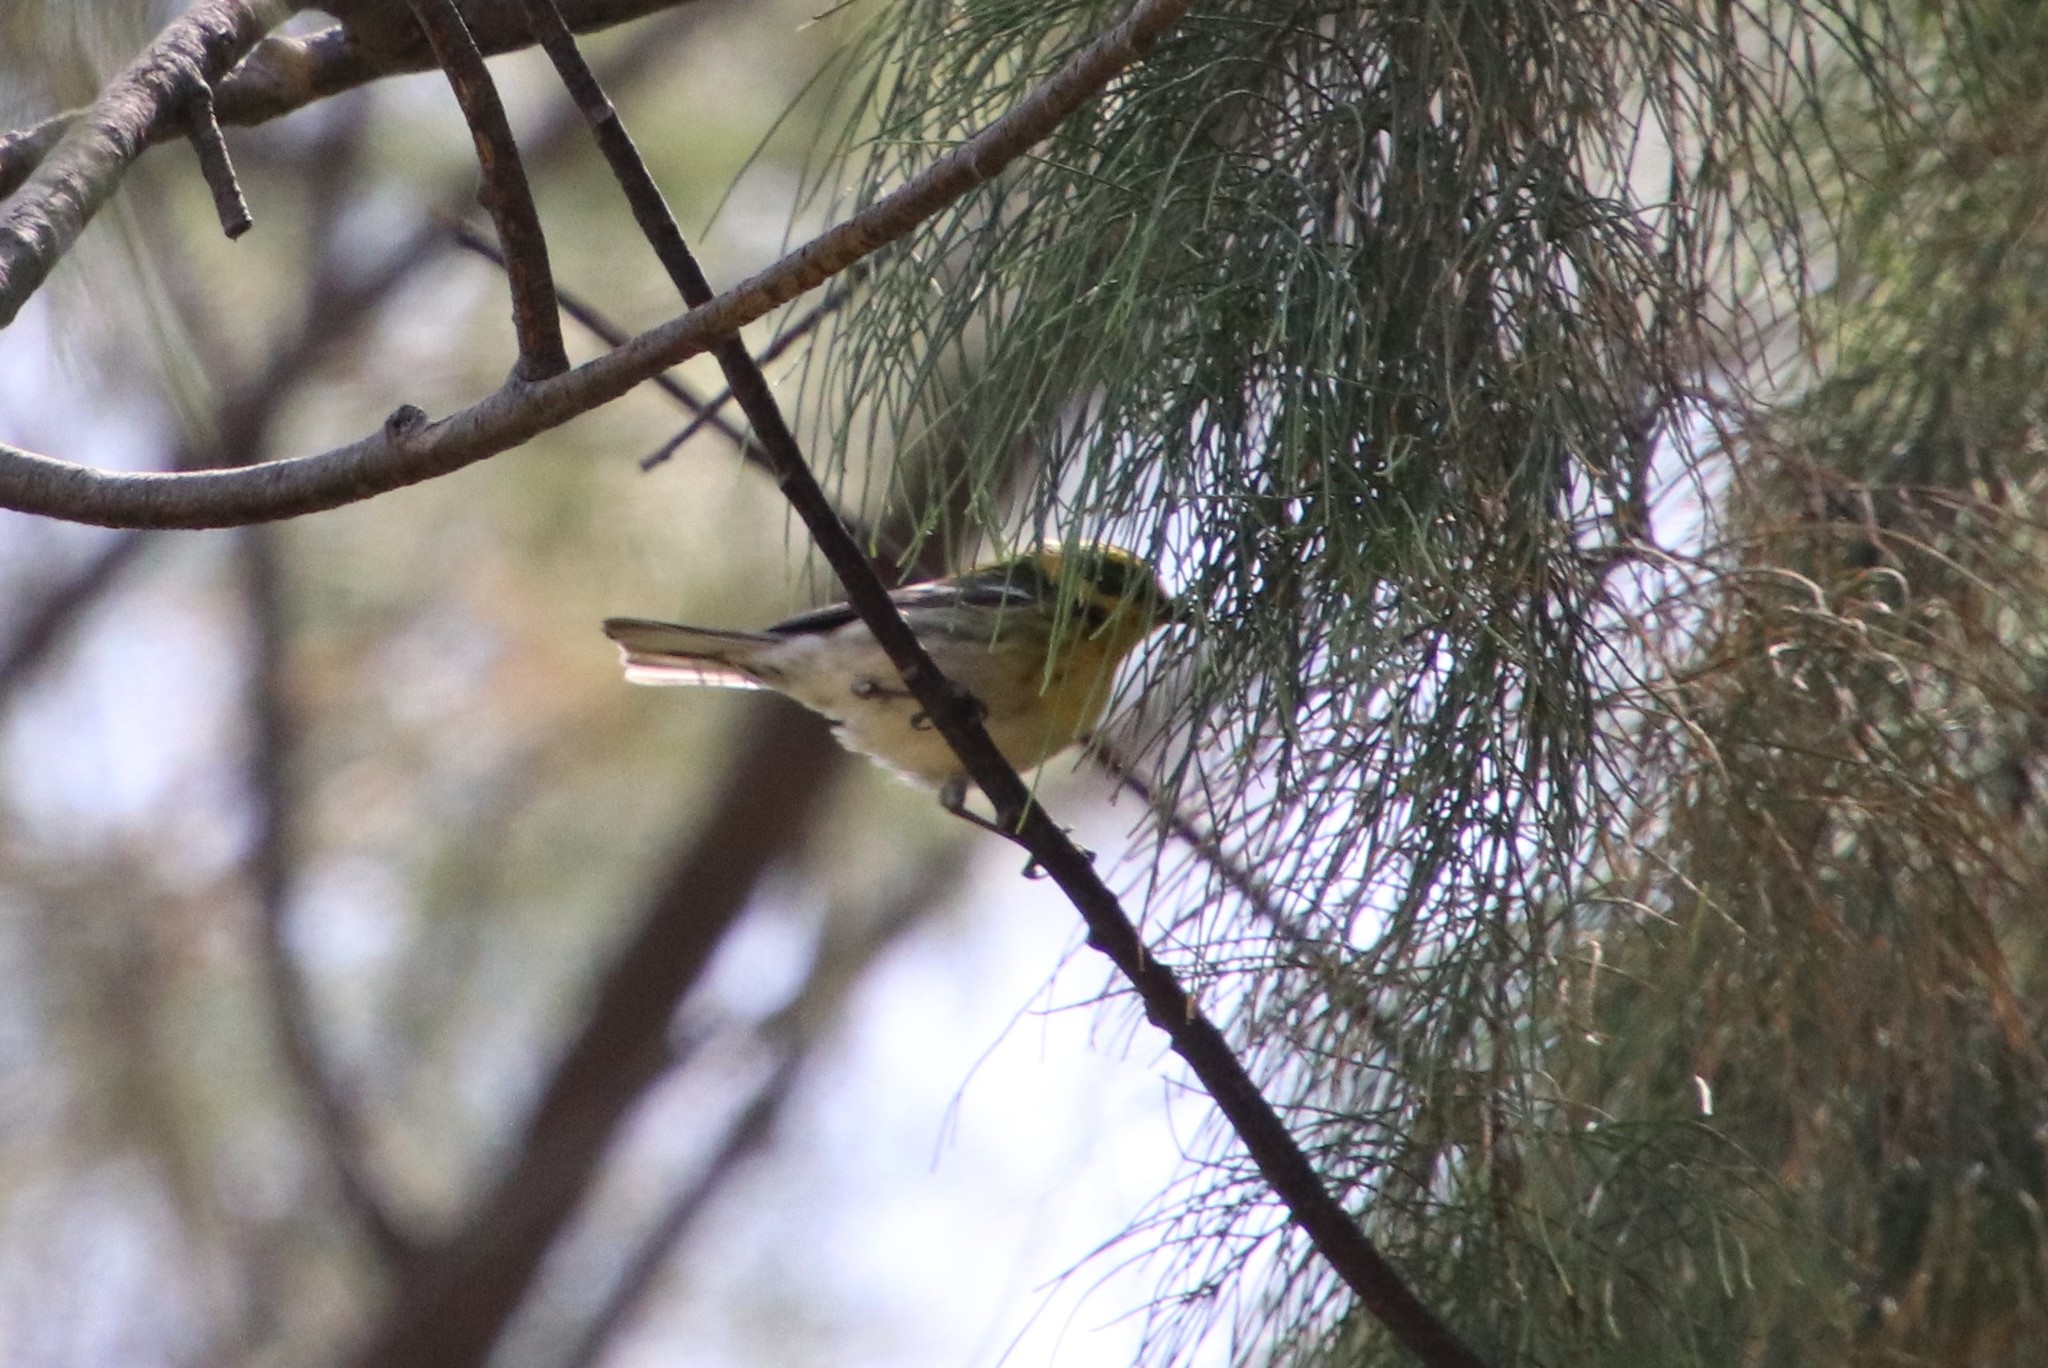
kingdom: Animalia
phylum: Chordata
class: Aves
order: Passeriformes
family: Parulidae
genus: Setophaga
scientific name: Setophaga townsendi
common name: Townsend's warbler
